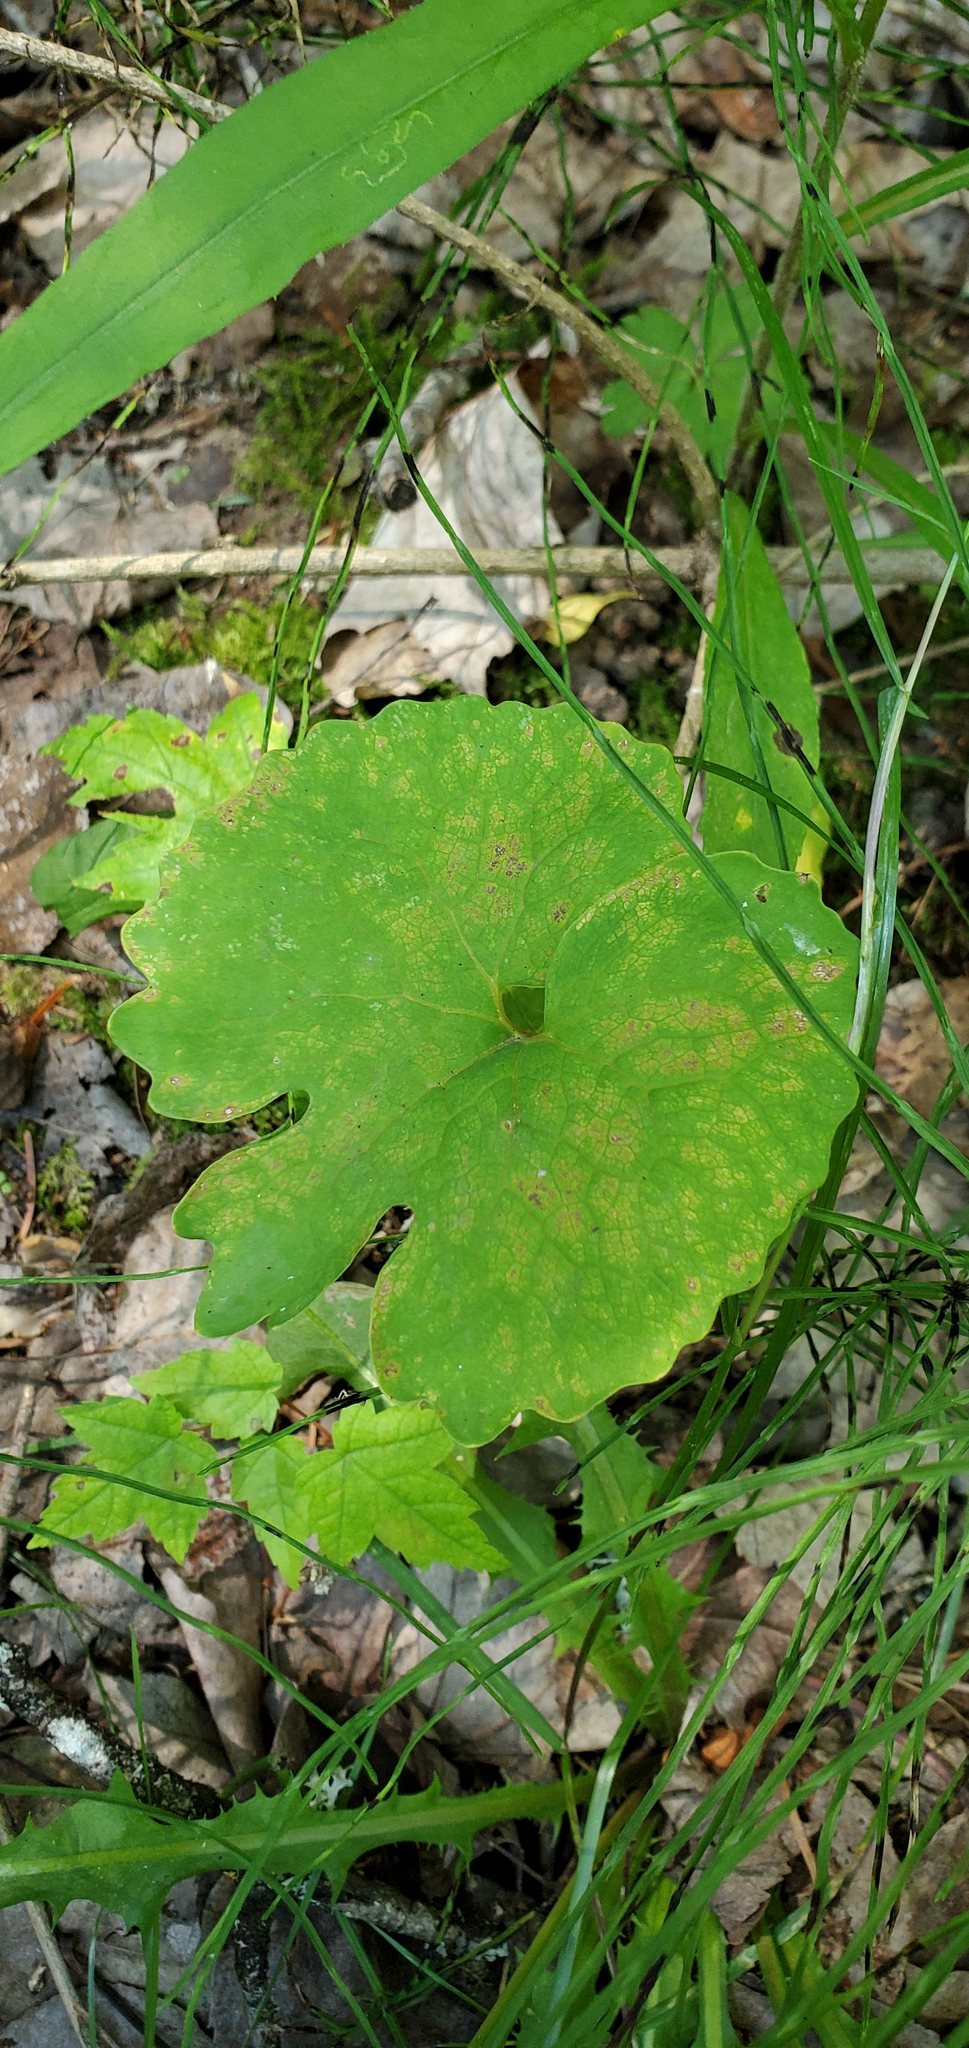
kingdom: Plantae
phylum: Tracheophyta
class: Magnoliopsida
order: Ranunculales
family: Papaveraceae
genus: Sanguinaria
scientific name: Sanguinaria canadensis
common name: Bloodroot
